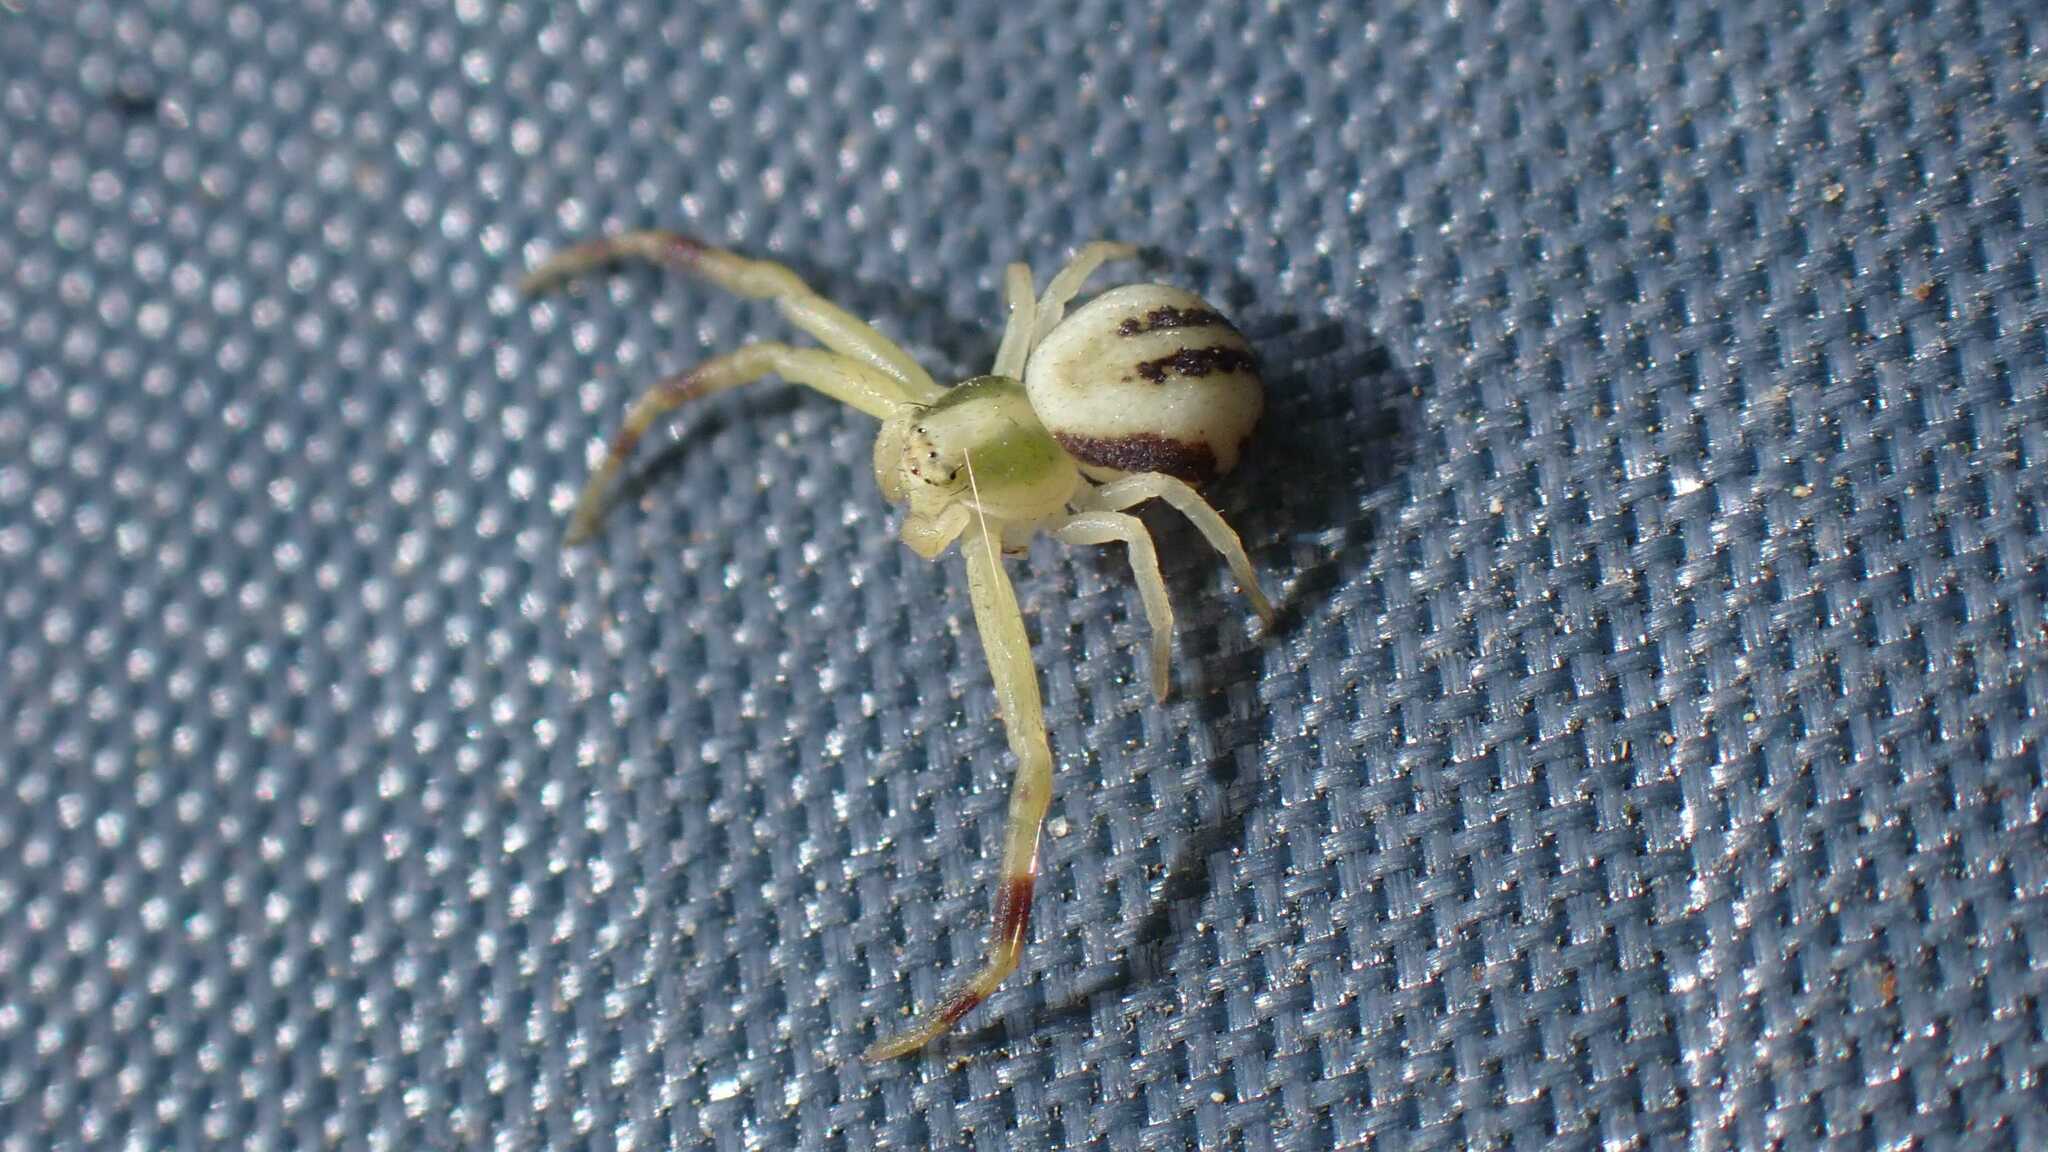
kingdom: Animalia
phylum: Arthropoda
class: Arachnida
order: Araneae
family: Thomisidae
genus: Misumena
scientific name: Misumena vatia
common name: Goldenrod crab spider
